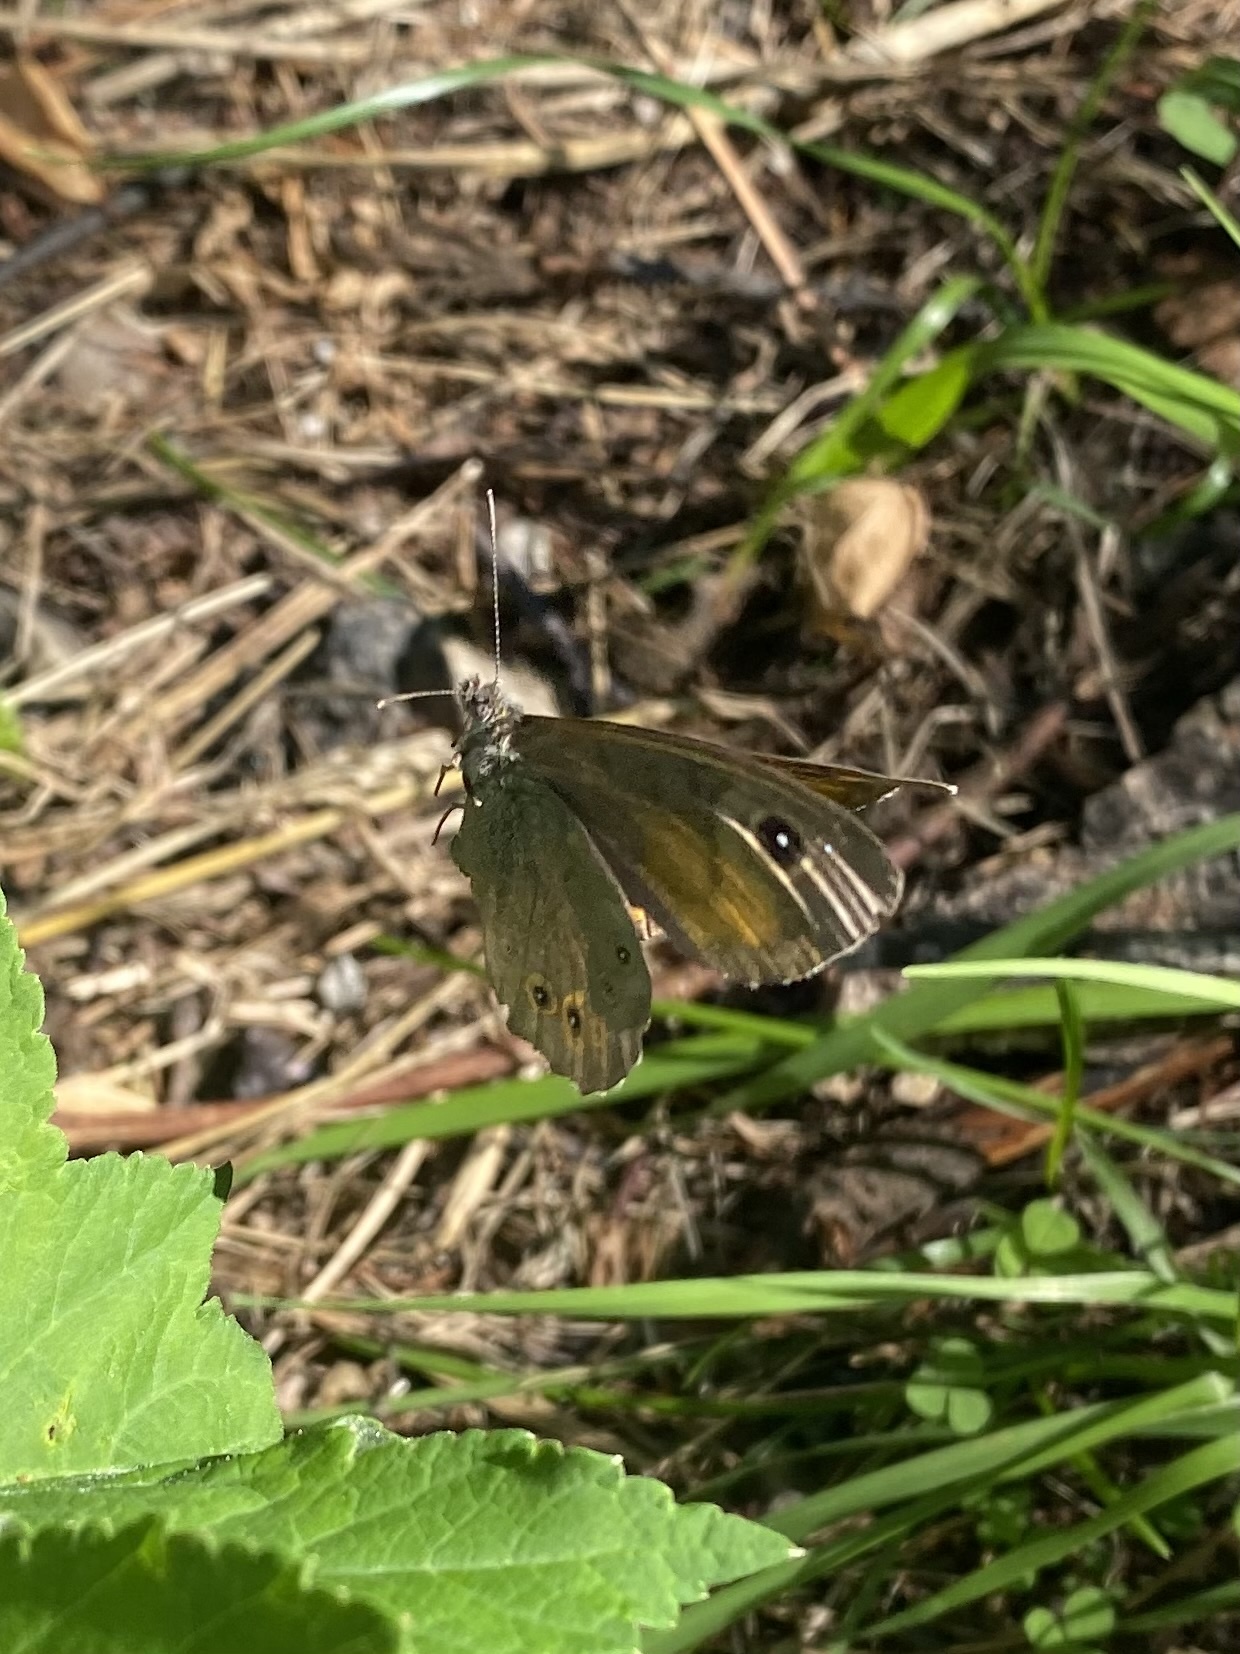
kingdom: Animalia
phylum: Arthropoda
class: Insecta
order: Lepidoptera
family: Nymphalidae
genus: Pararge
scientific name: Pararge Lasiommata maera
